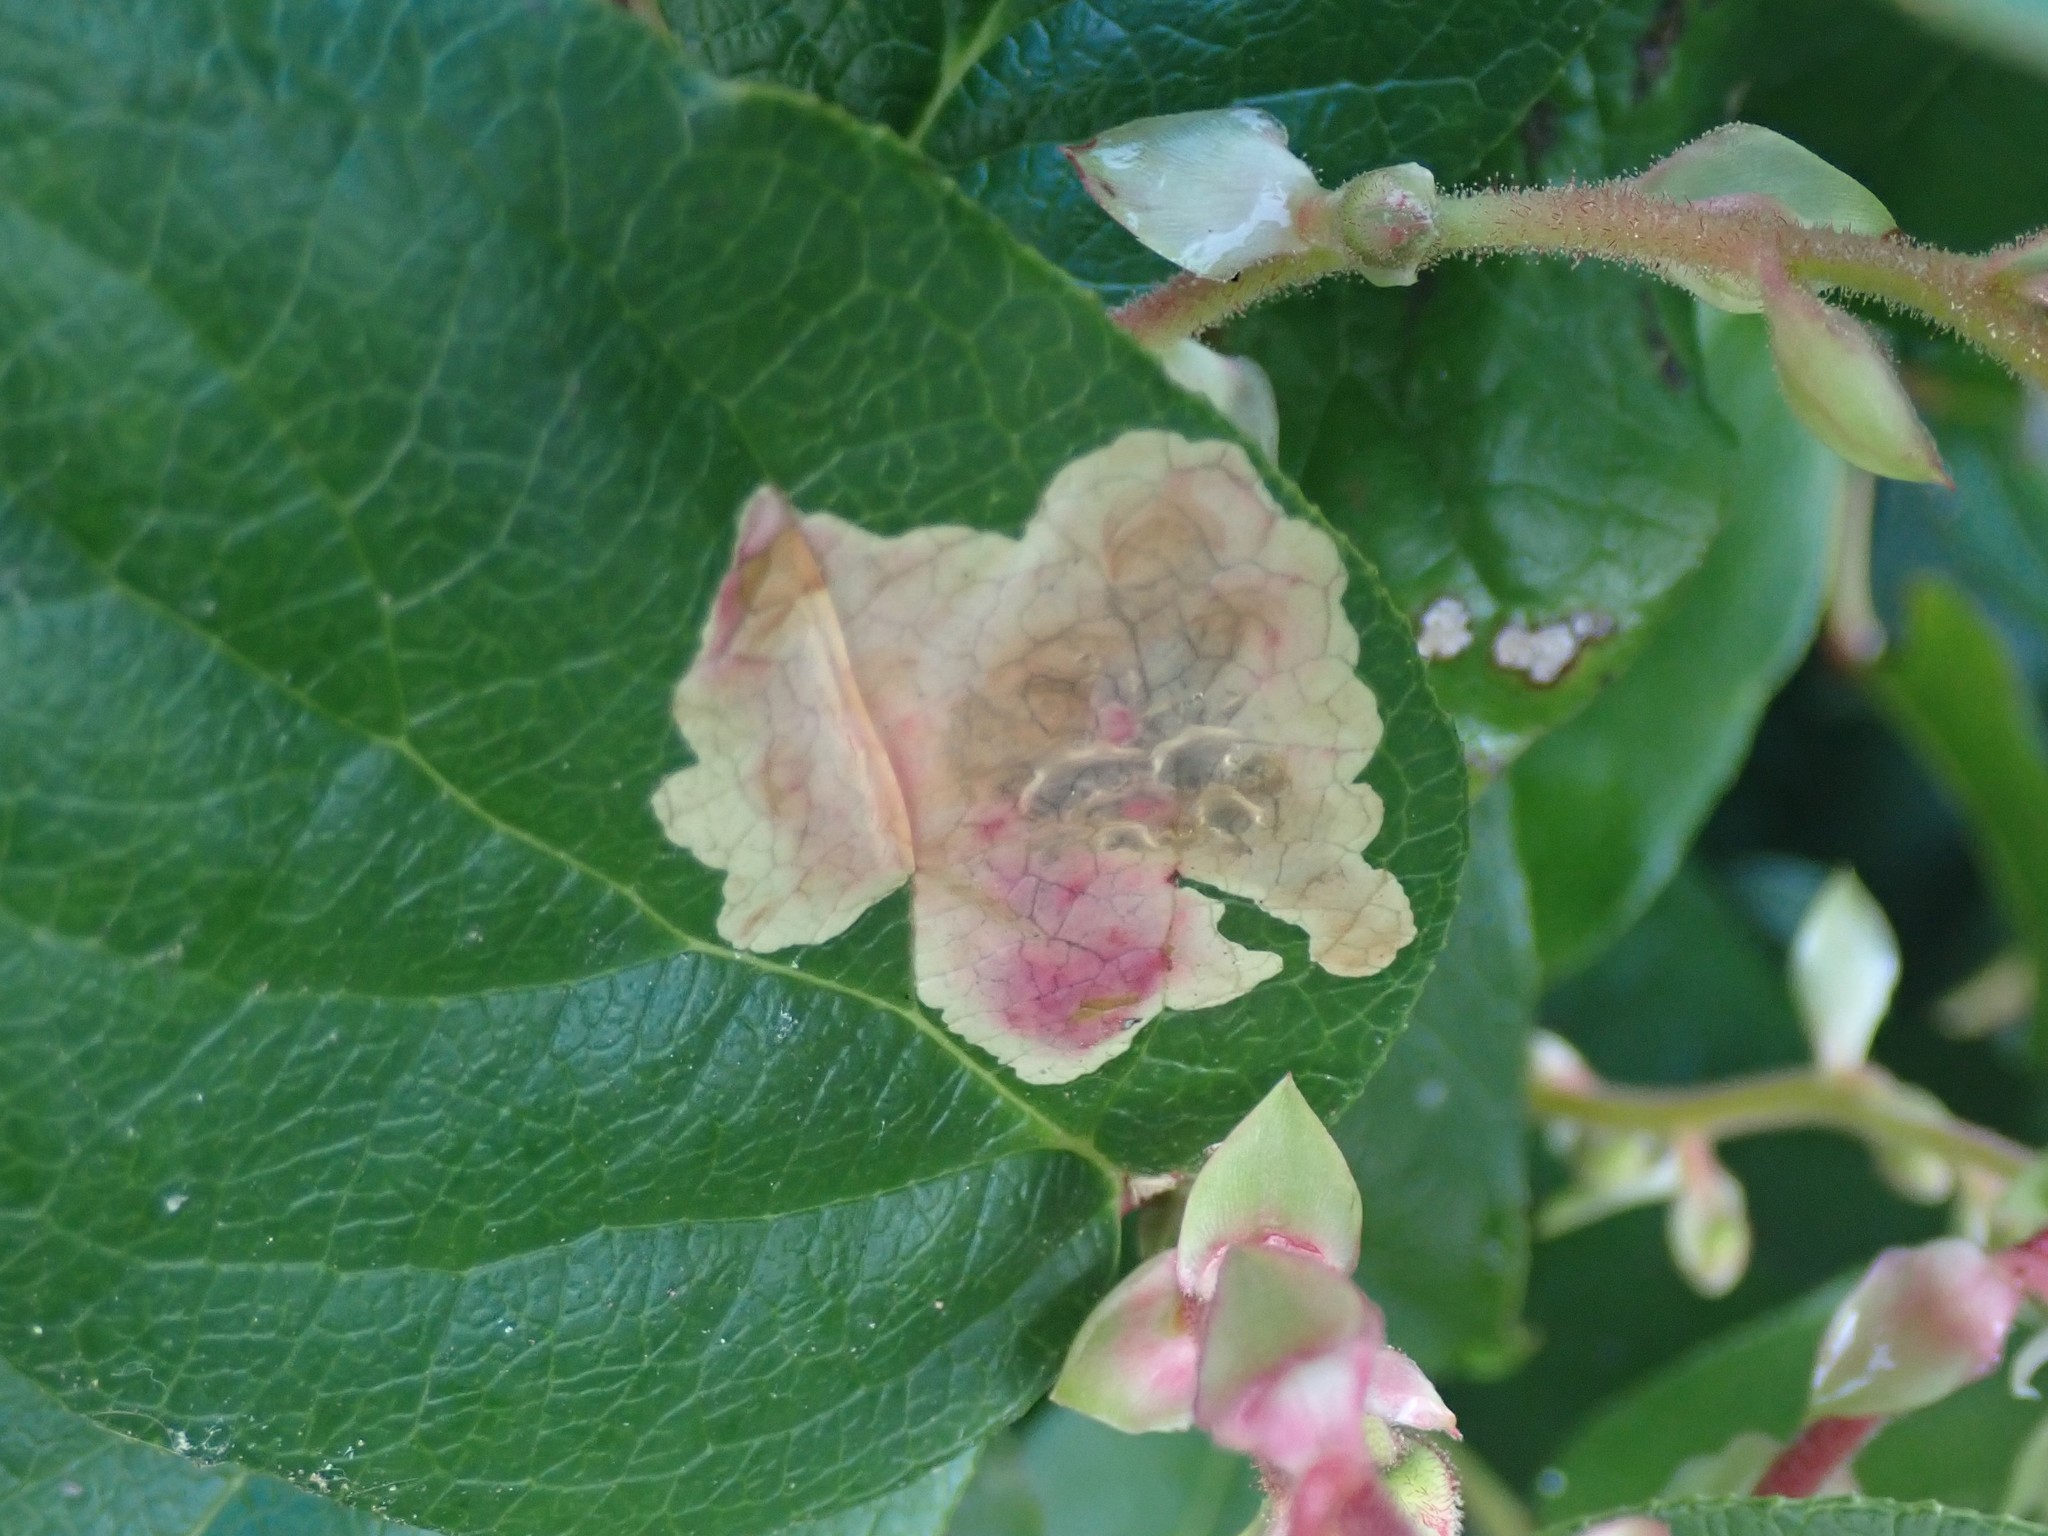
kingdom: Animalia
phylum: Arthropoda
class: Insecta
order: Lepidoptera
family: Gracillariidae
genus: Cameraria
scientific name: Cameraria gaultheriella
